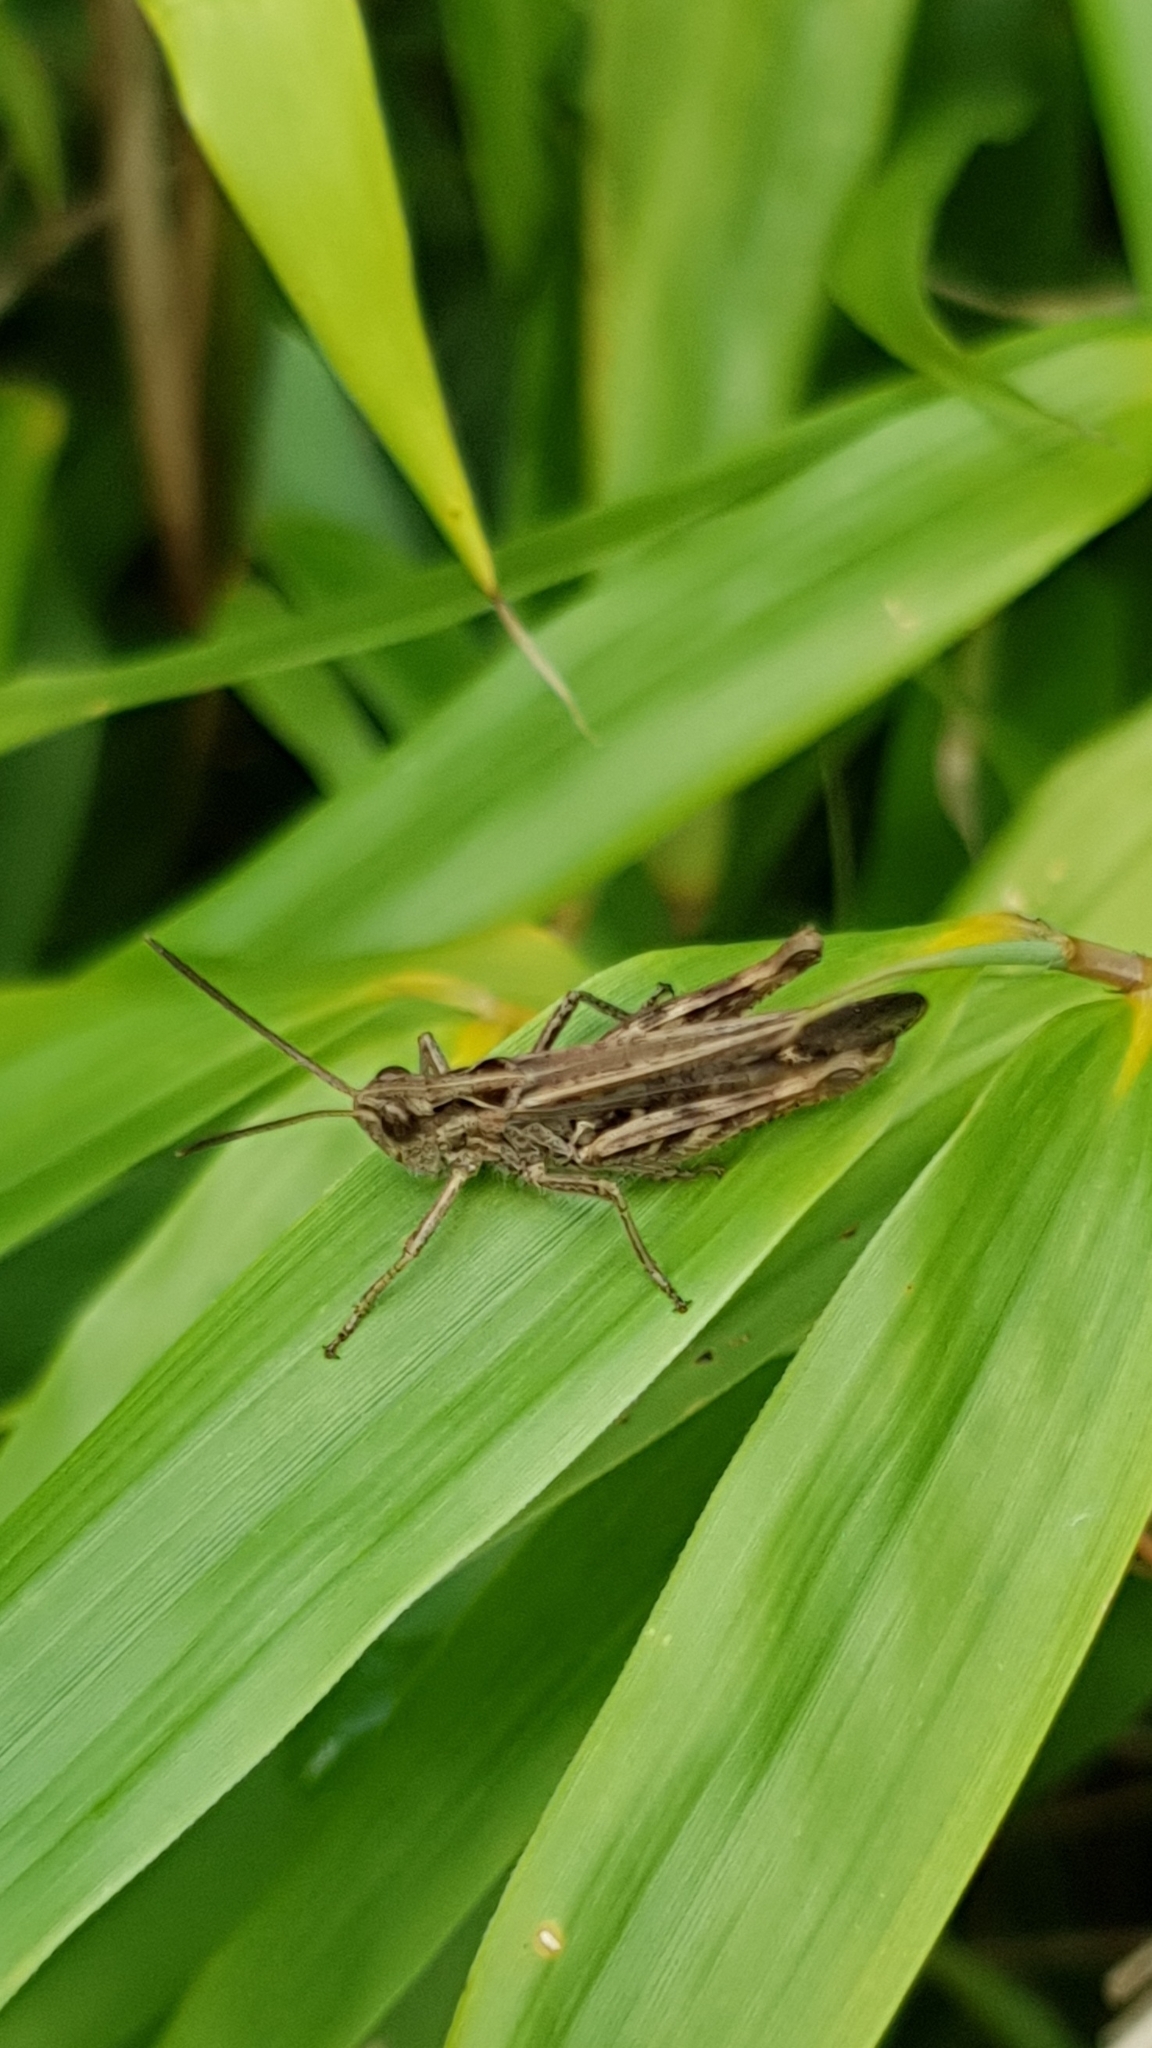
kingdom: Animalia
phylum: Arthropoda
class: Insecta
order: Orthoptera
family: Acrididae
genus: Chorthippus
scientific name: Chorthippus biguttulus
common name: Bow-winged grasshopper
